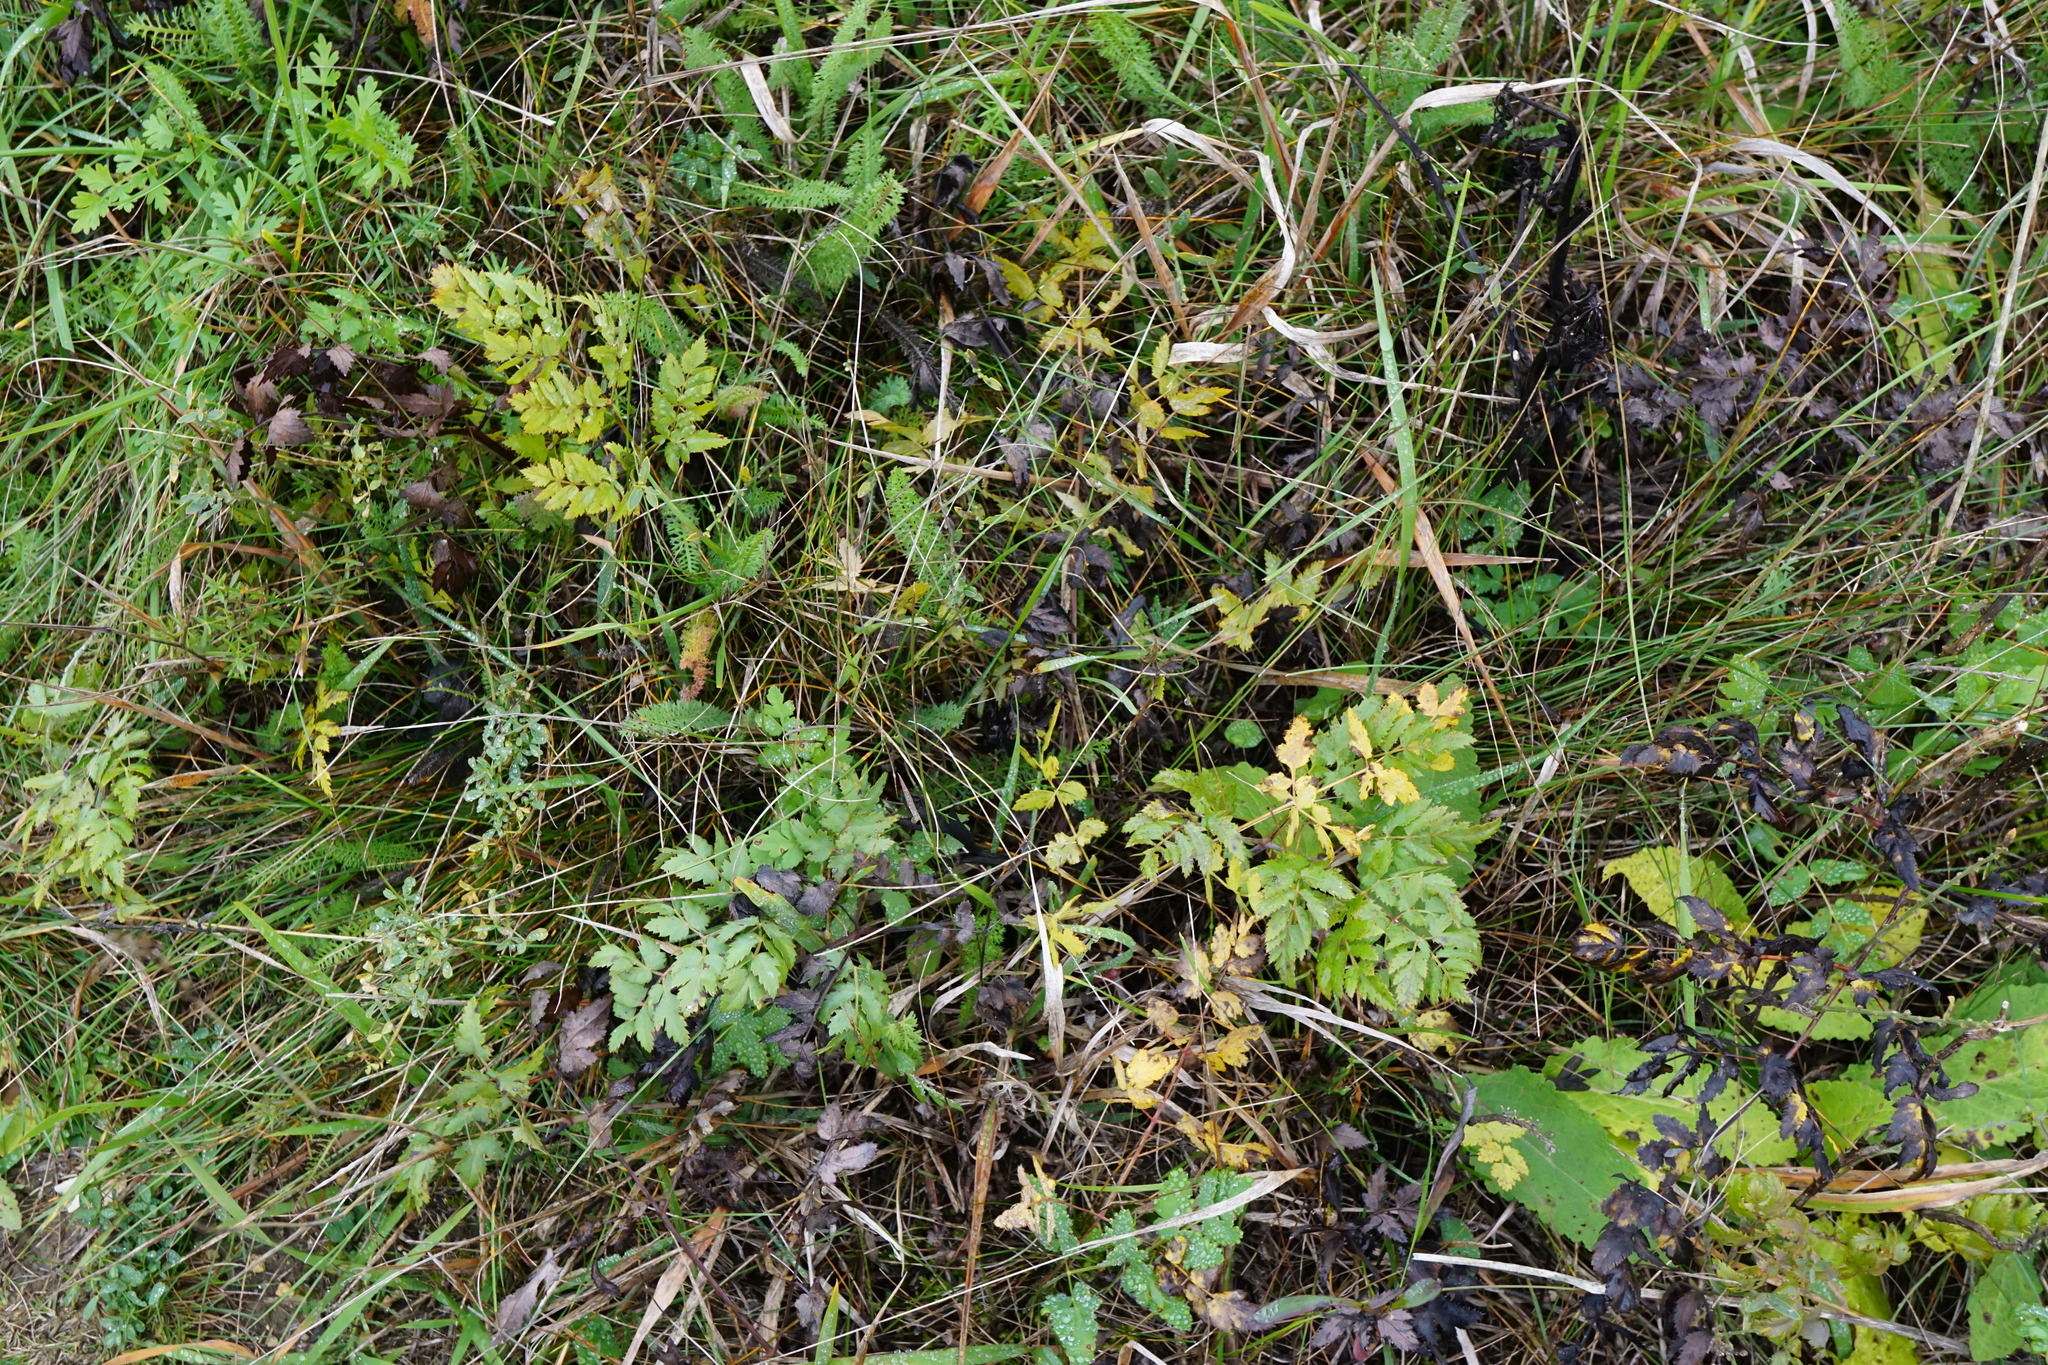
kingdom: Plantae
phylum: Tracheophyta
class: Magnoliopsida
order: Apiales
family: Apiaceae
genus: Cervaria
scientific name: Cervaria rivini
